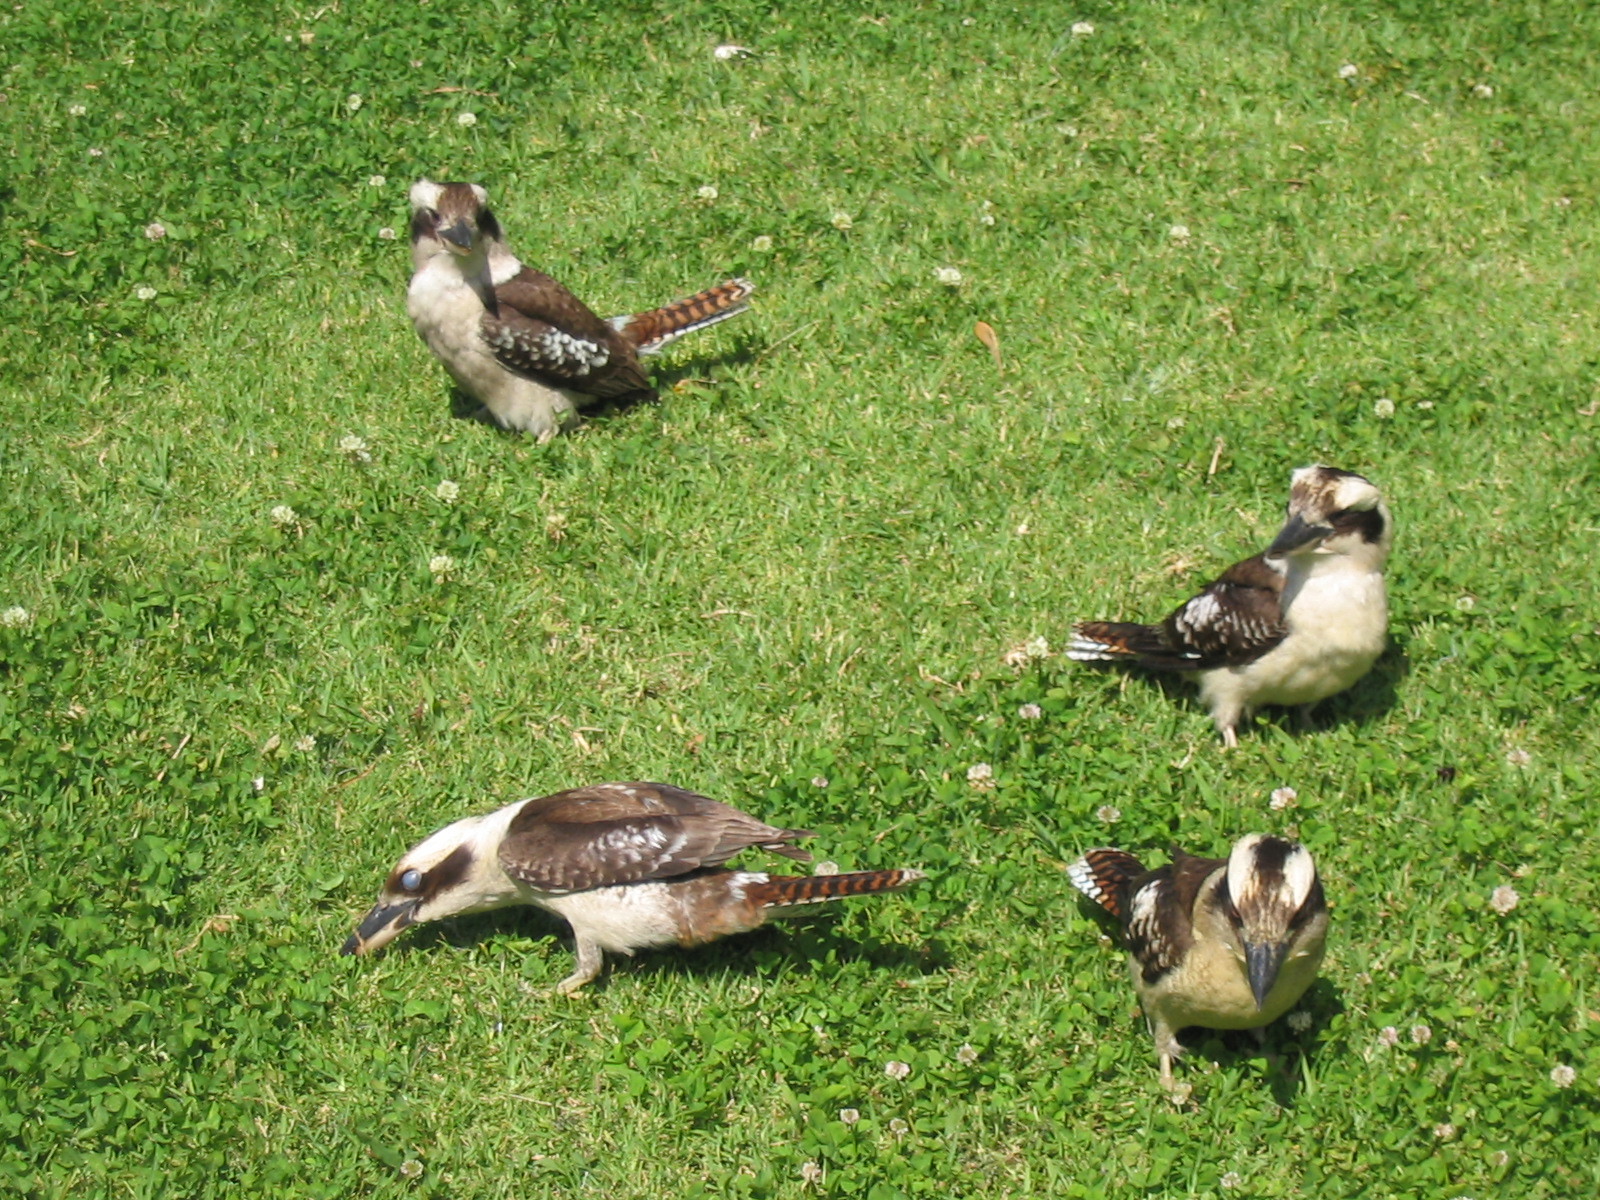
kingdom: Animalia
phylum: Chordata
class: Aves
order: Coraciiformes
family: Alcedinidae
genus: Dacelo
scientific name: Dacelo novaeguineae
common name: Laughing kookaburra
